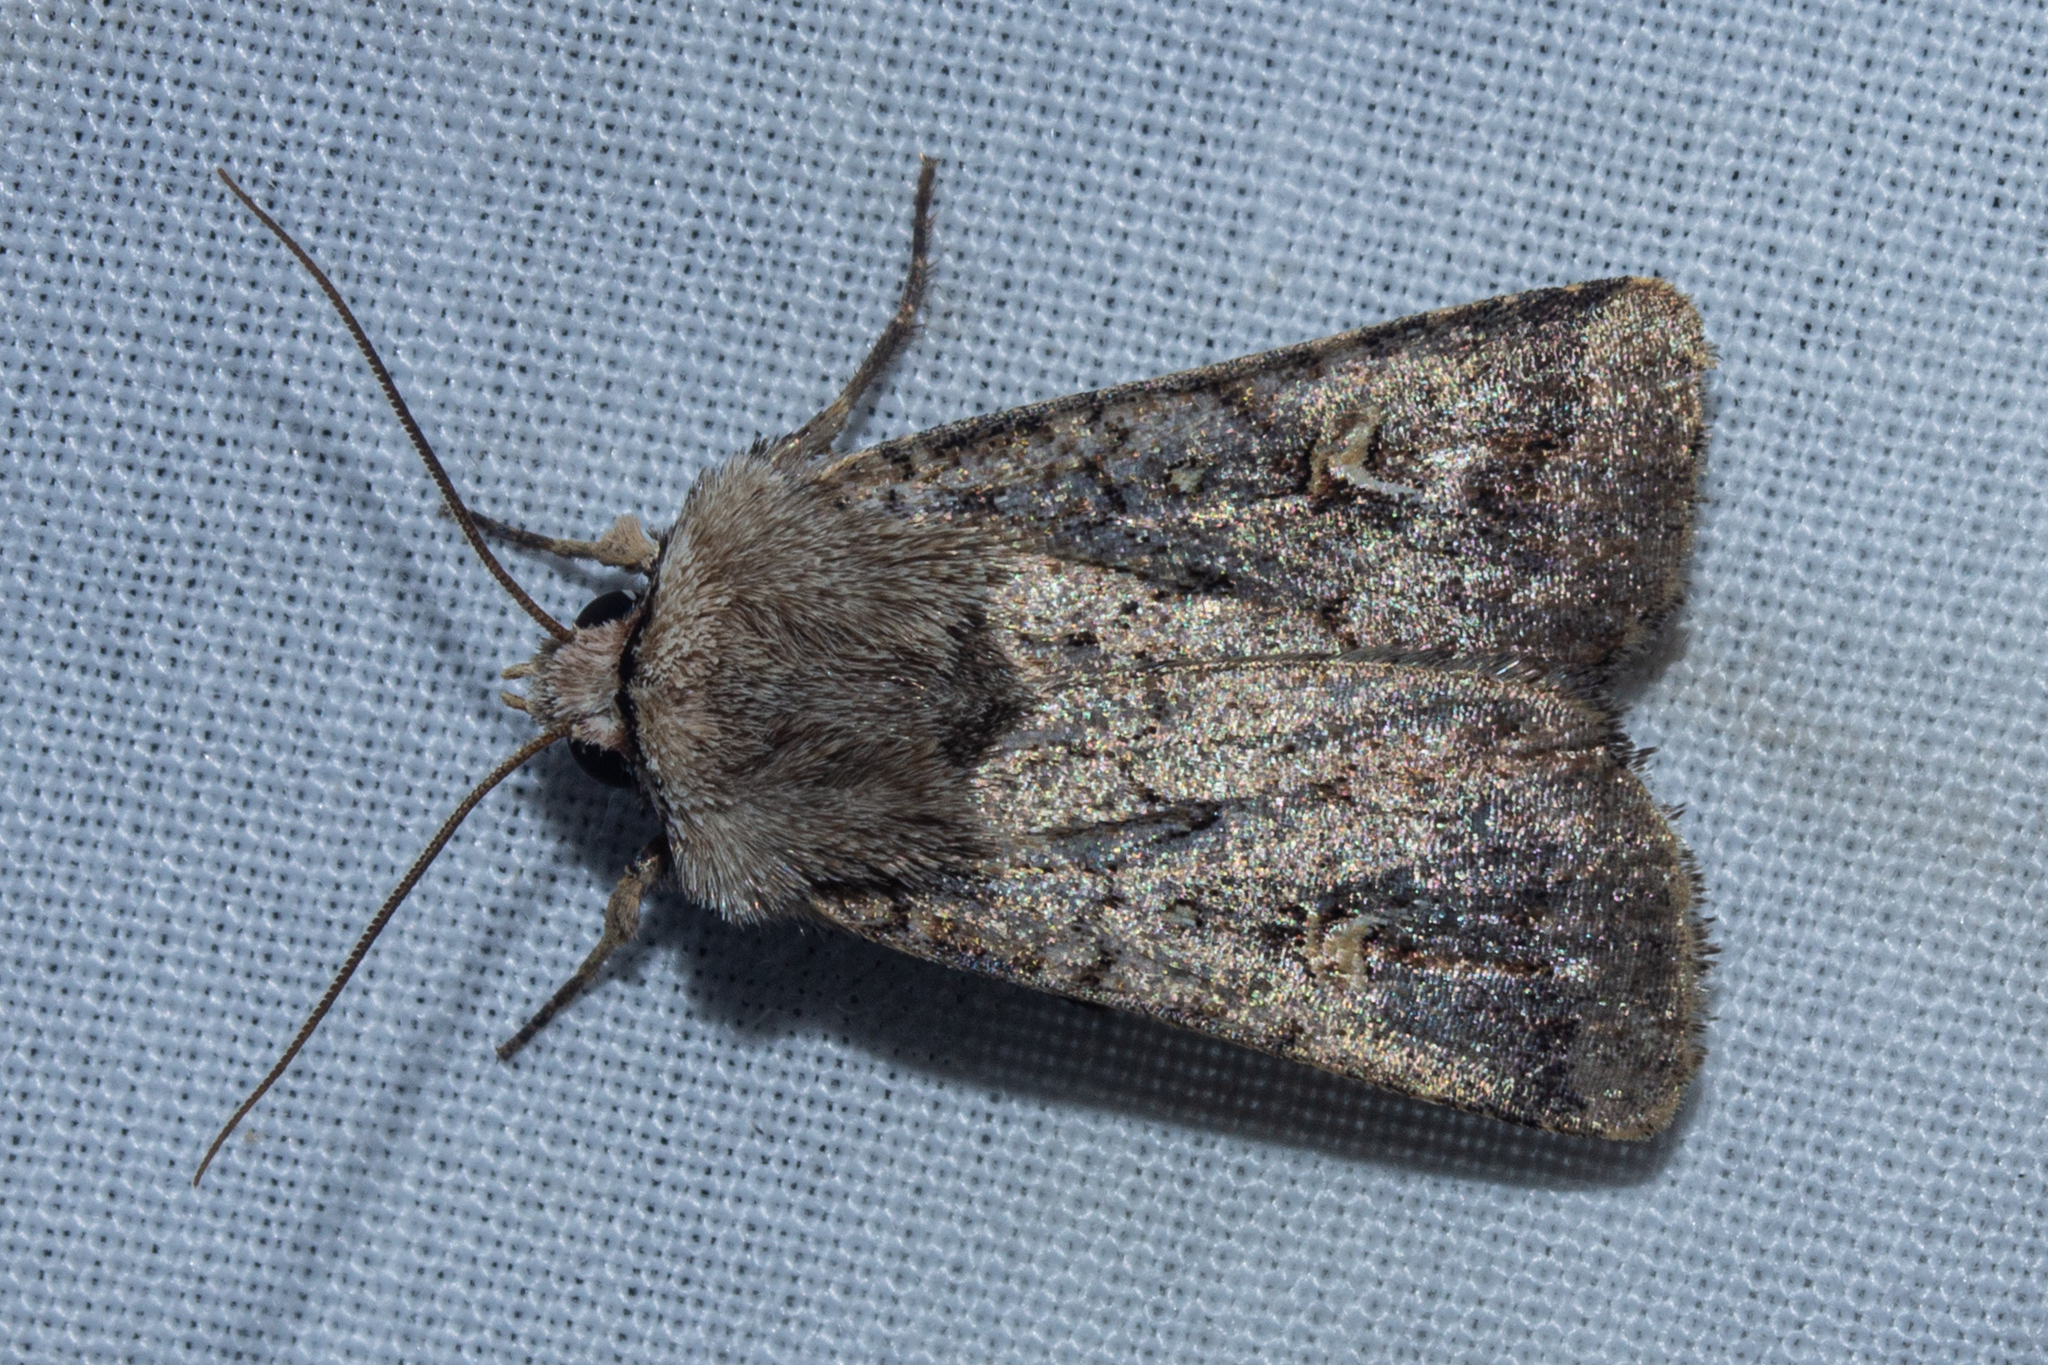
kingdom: Animalia
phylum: Arthropoda
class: Insecta
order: Lepidoptera
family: Noctuidae
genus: Proteuxoa
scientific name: Proteuxoa tetronycha
